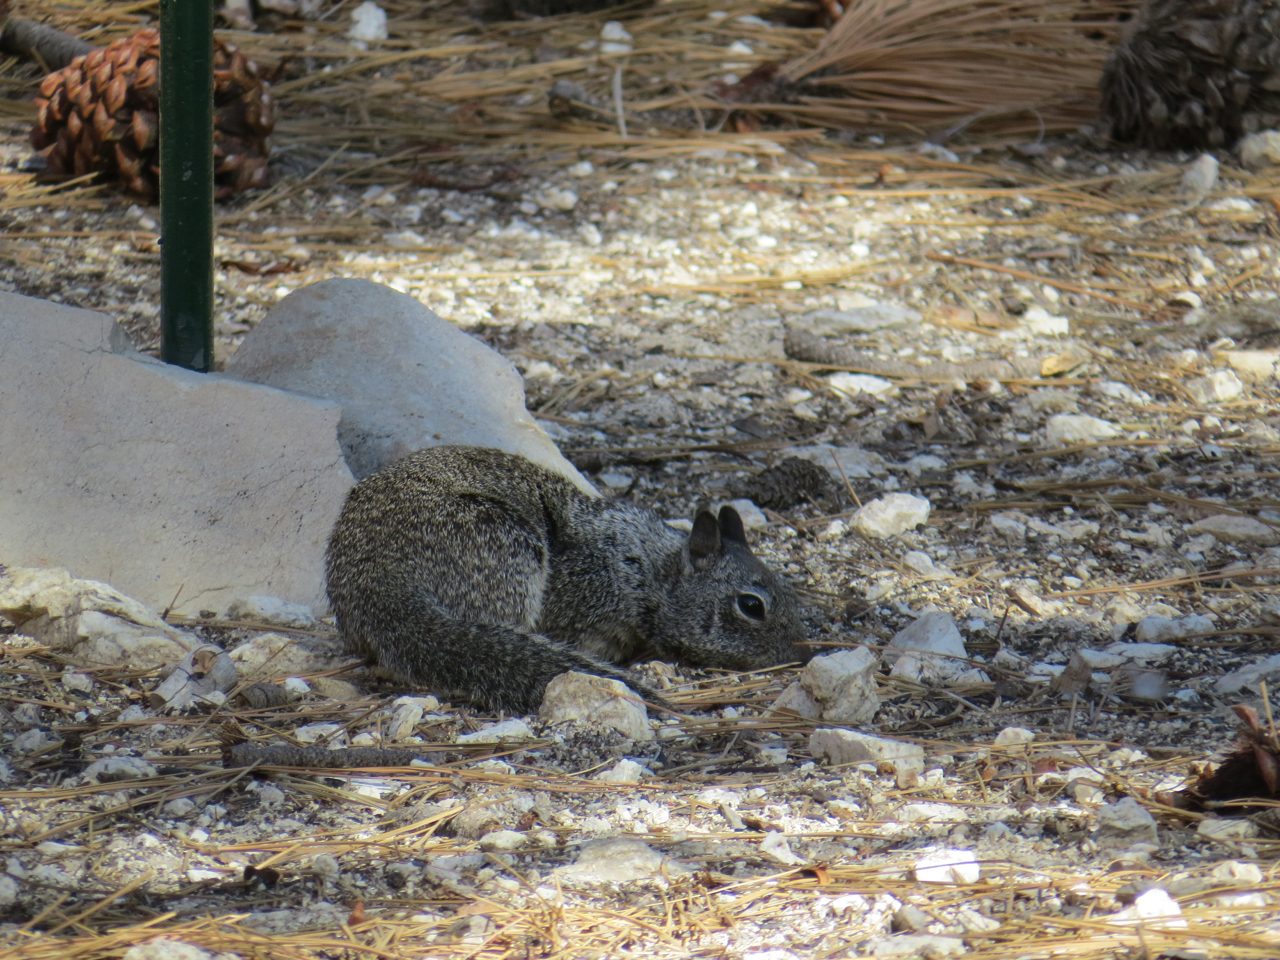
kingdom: Animalia
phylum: Chordata
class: Mammalia
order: Rodentia
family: Sciuridae
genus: Otospermophilus
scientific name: Otospermophilus beecheyi
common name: California ground squirrel
